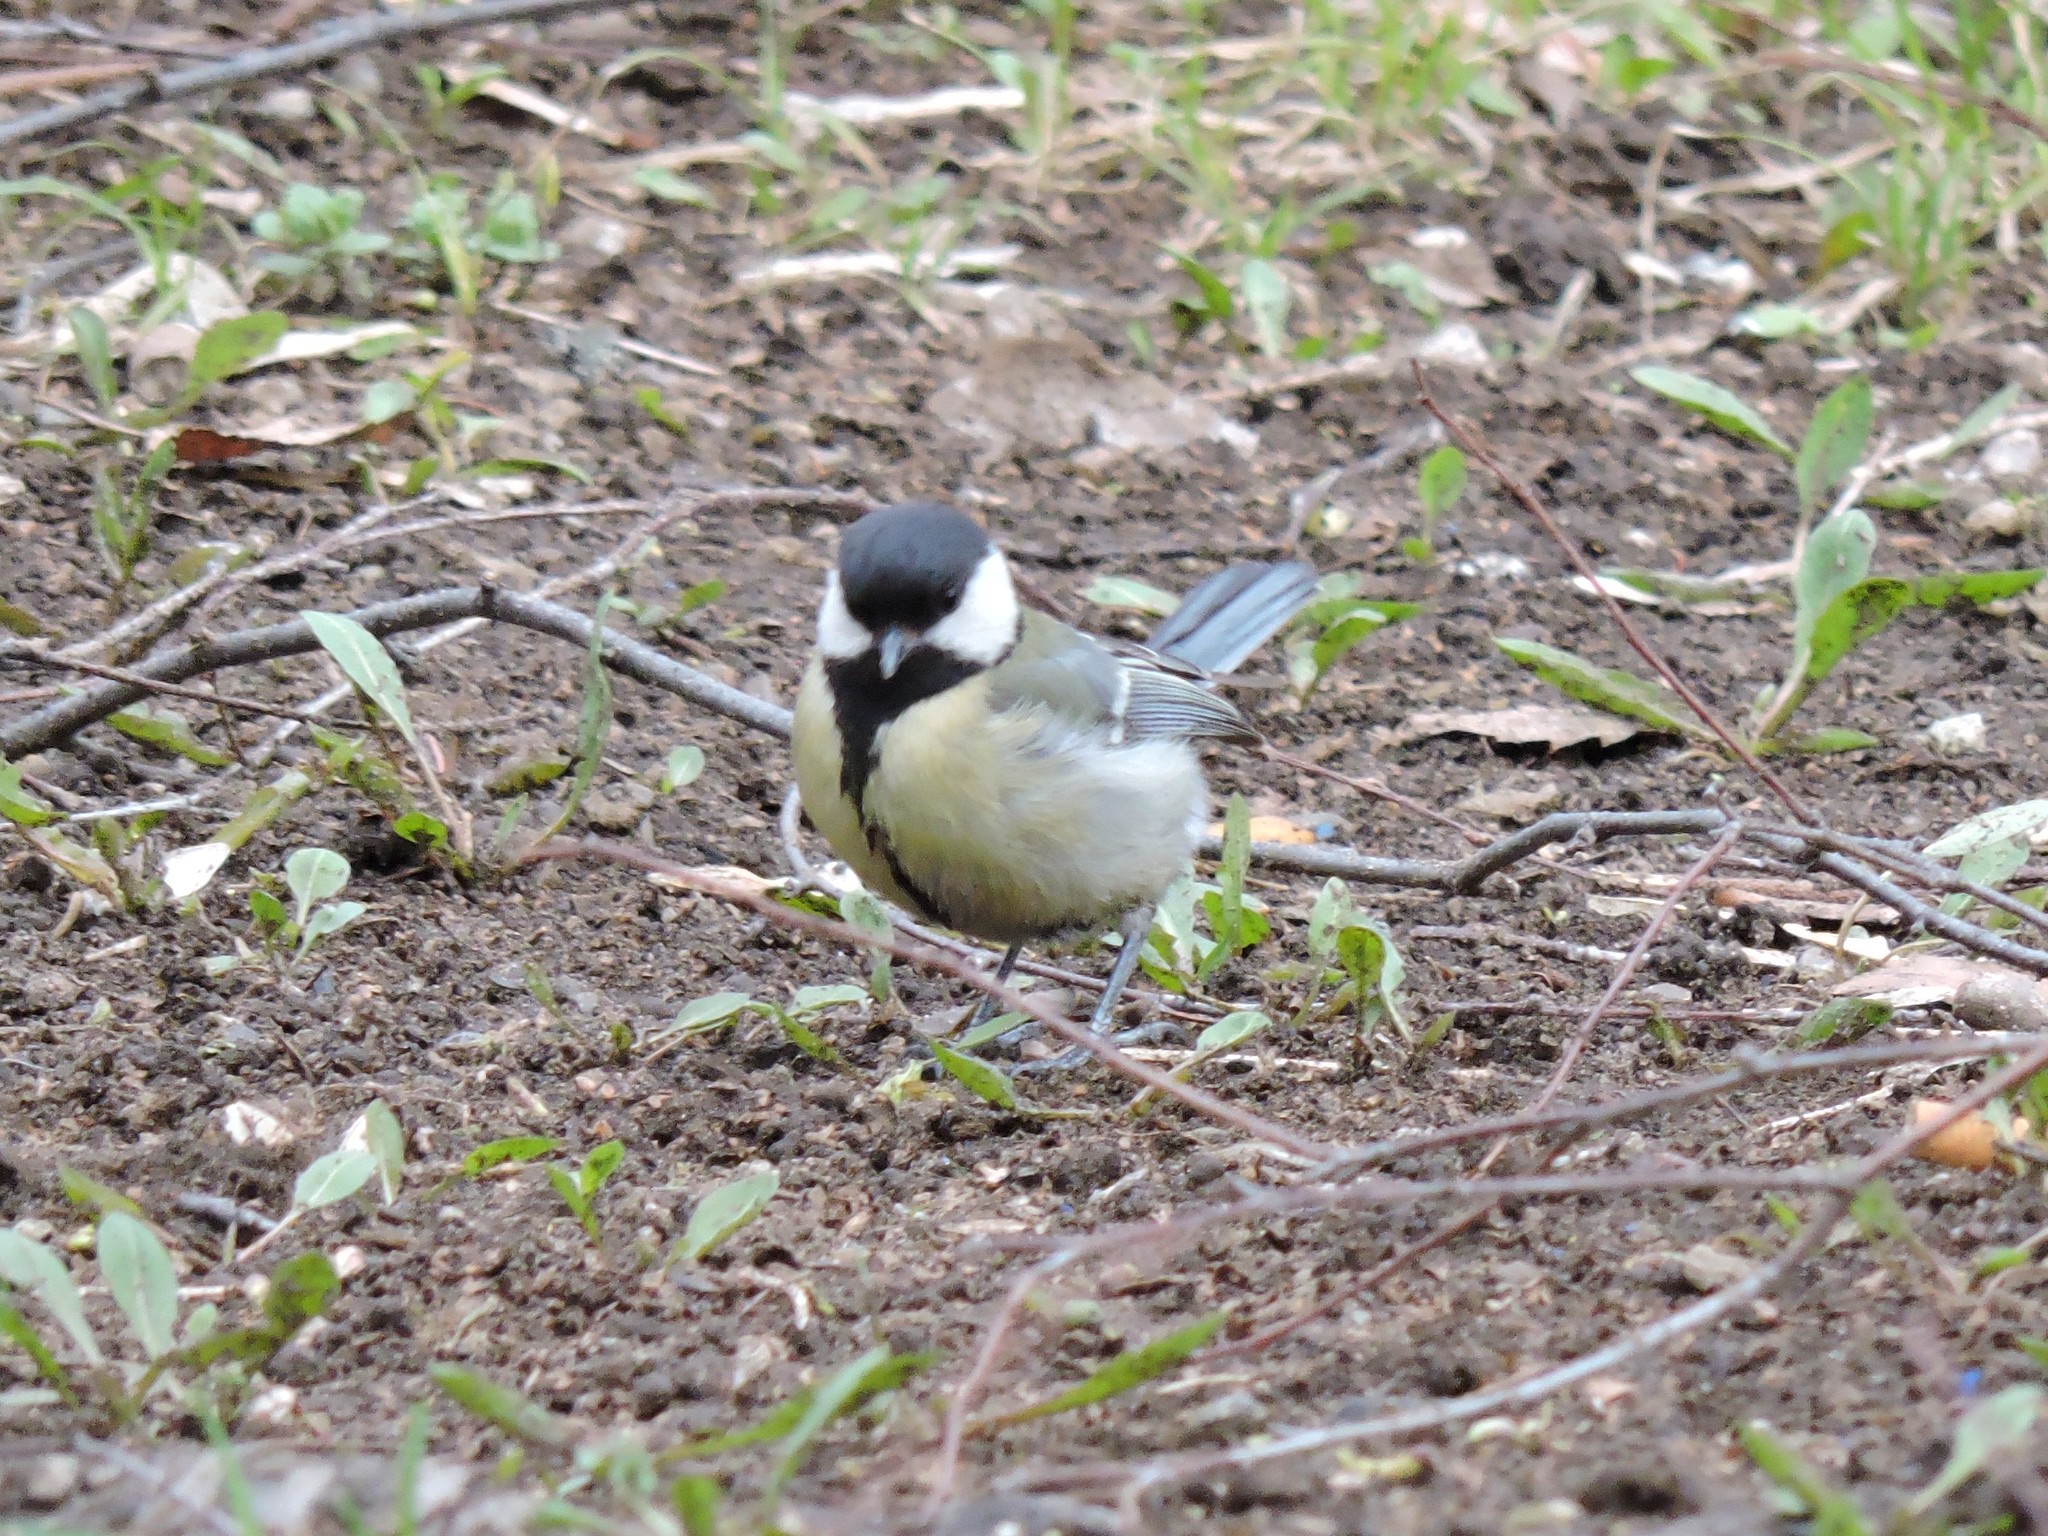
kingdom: Animalia
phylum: Chordata
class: Aves
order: Passeriformes
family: Paridae
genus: Parus
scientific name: Parus major
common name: Great tit
